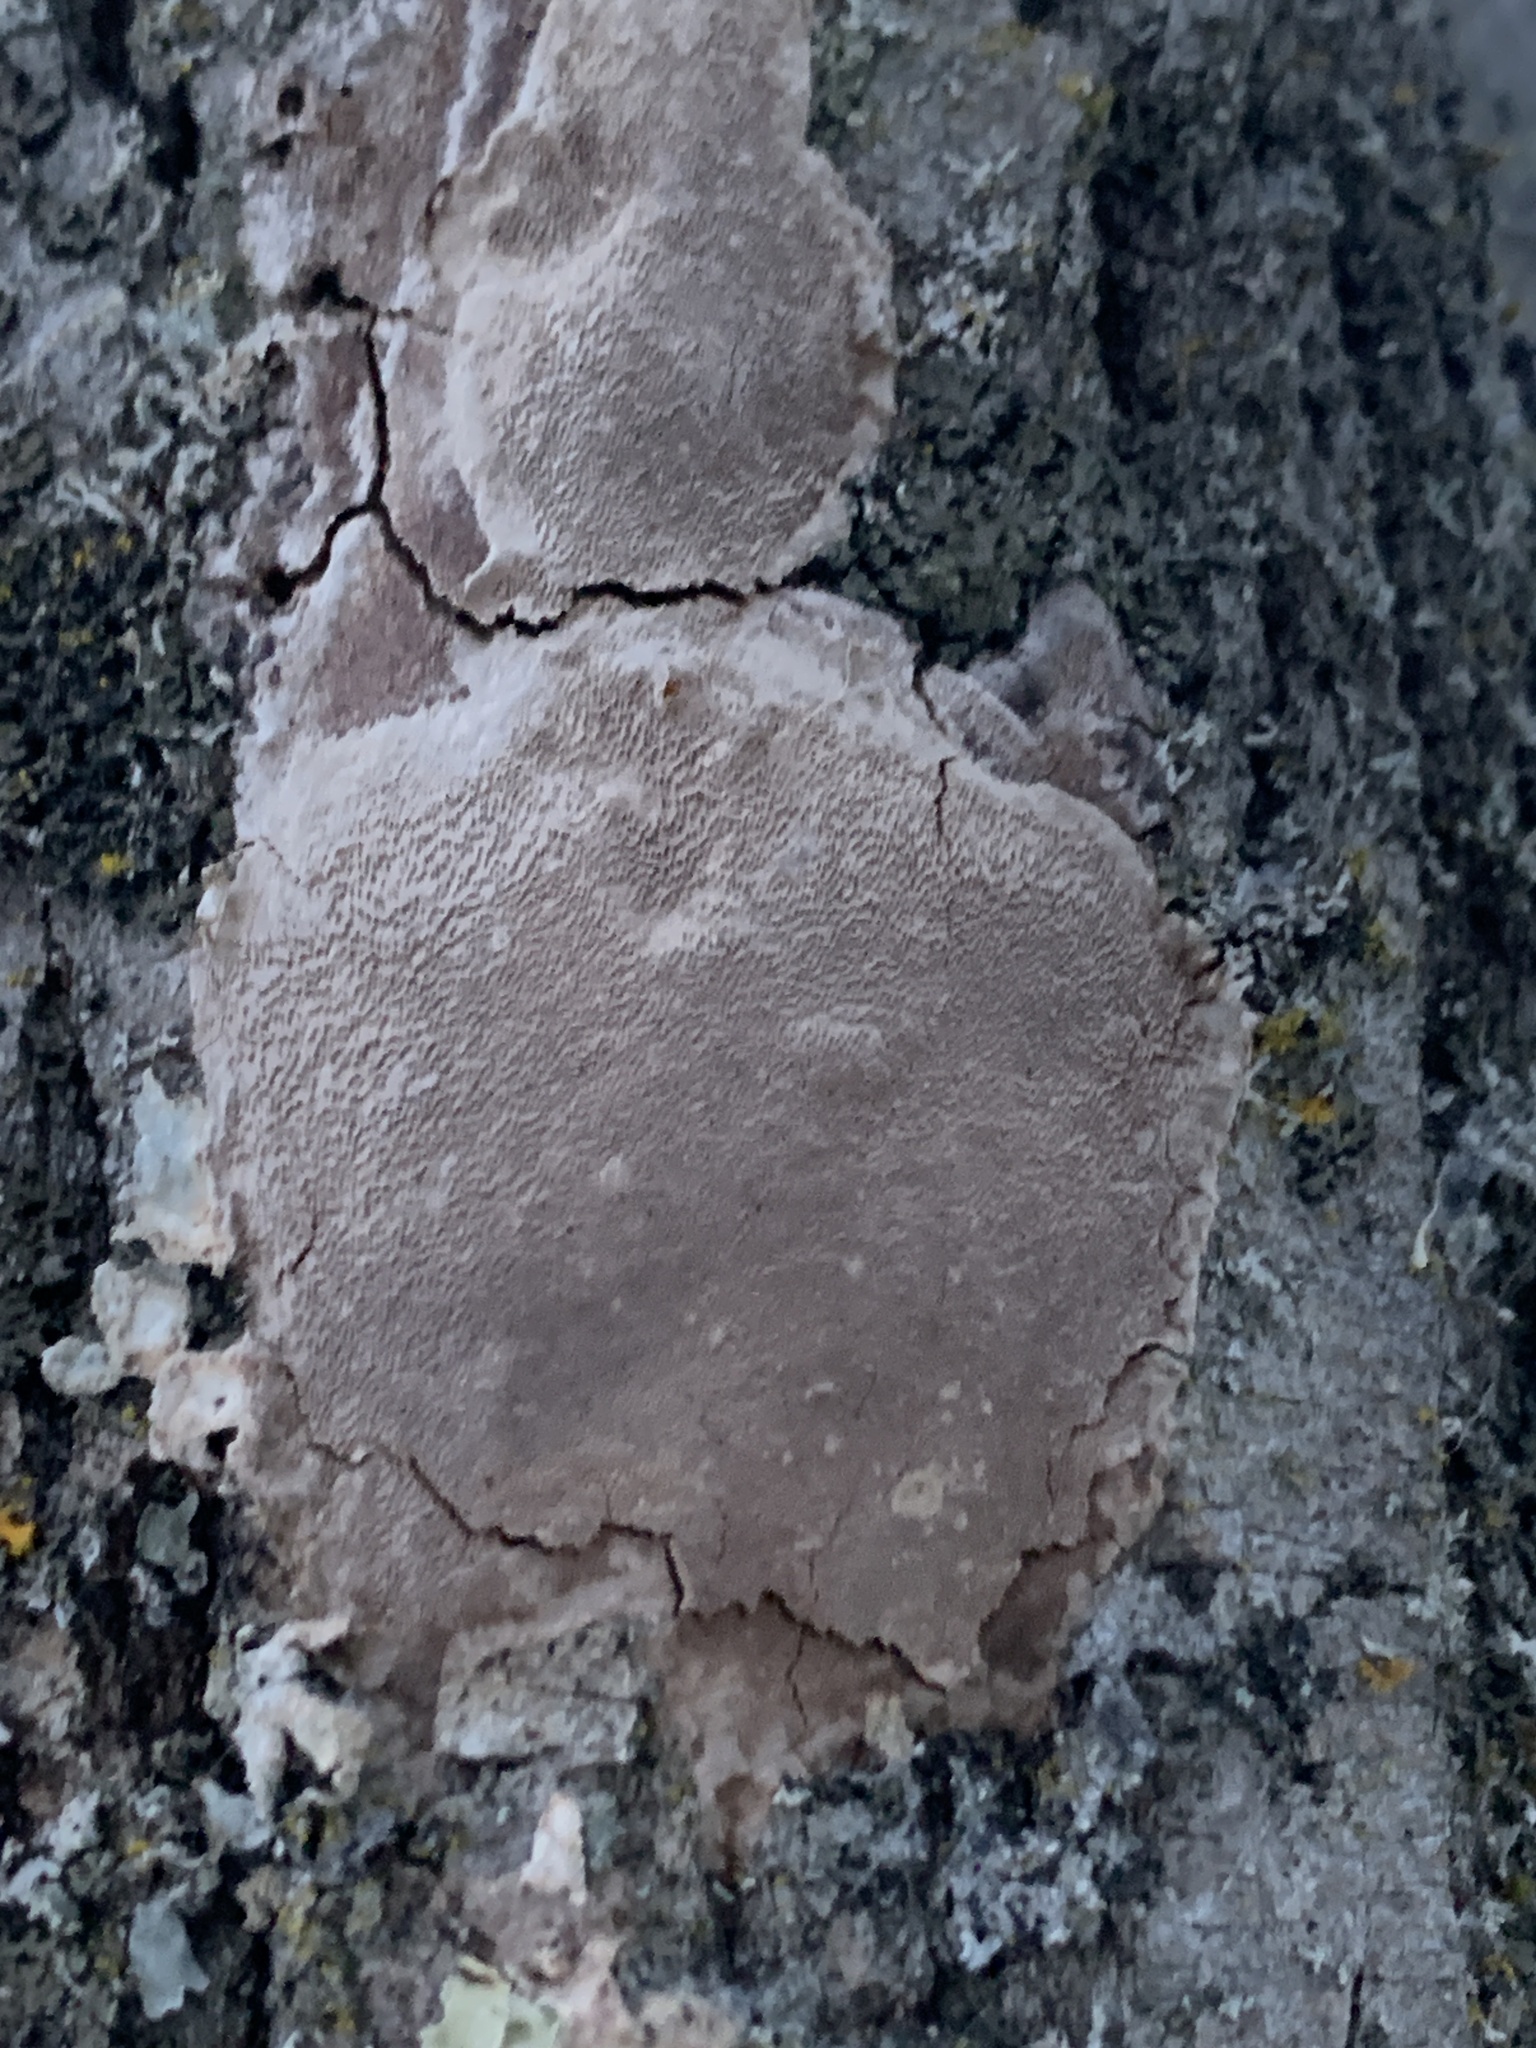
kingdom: Fungi
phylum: Basidiomycota
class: Agaricomycetes
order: Hymenochaetales
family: Hymenochaetaceae
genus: Fomitiporia
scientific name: Fomitiporia punctata
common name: Elbowpatch crust
